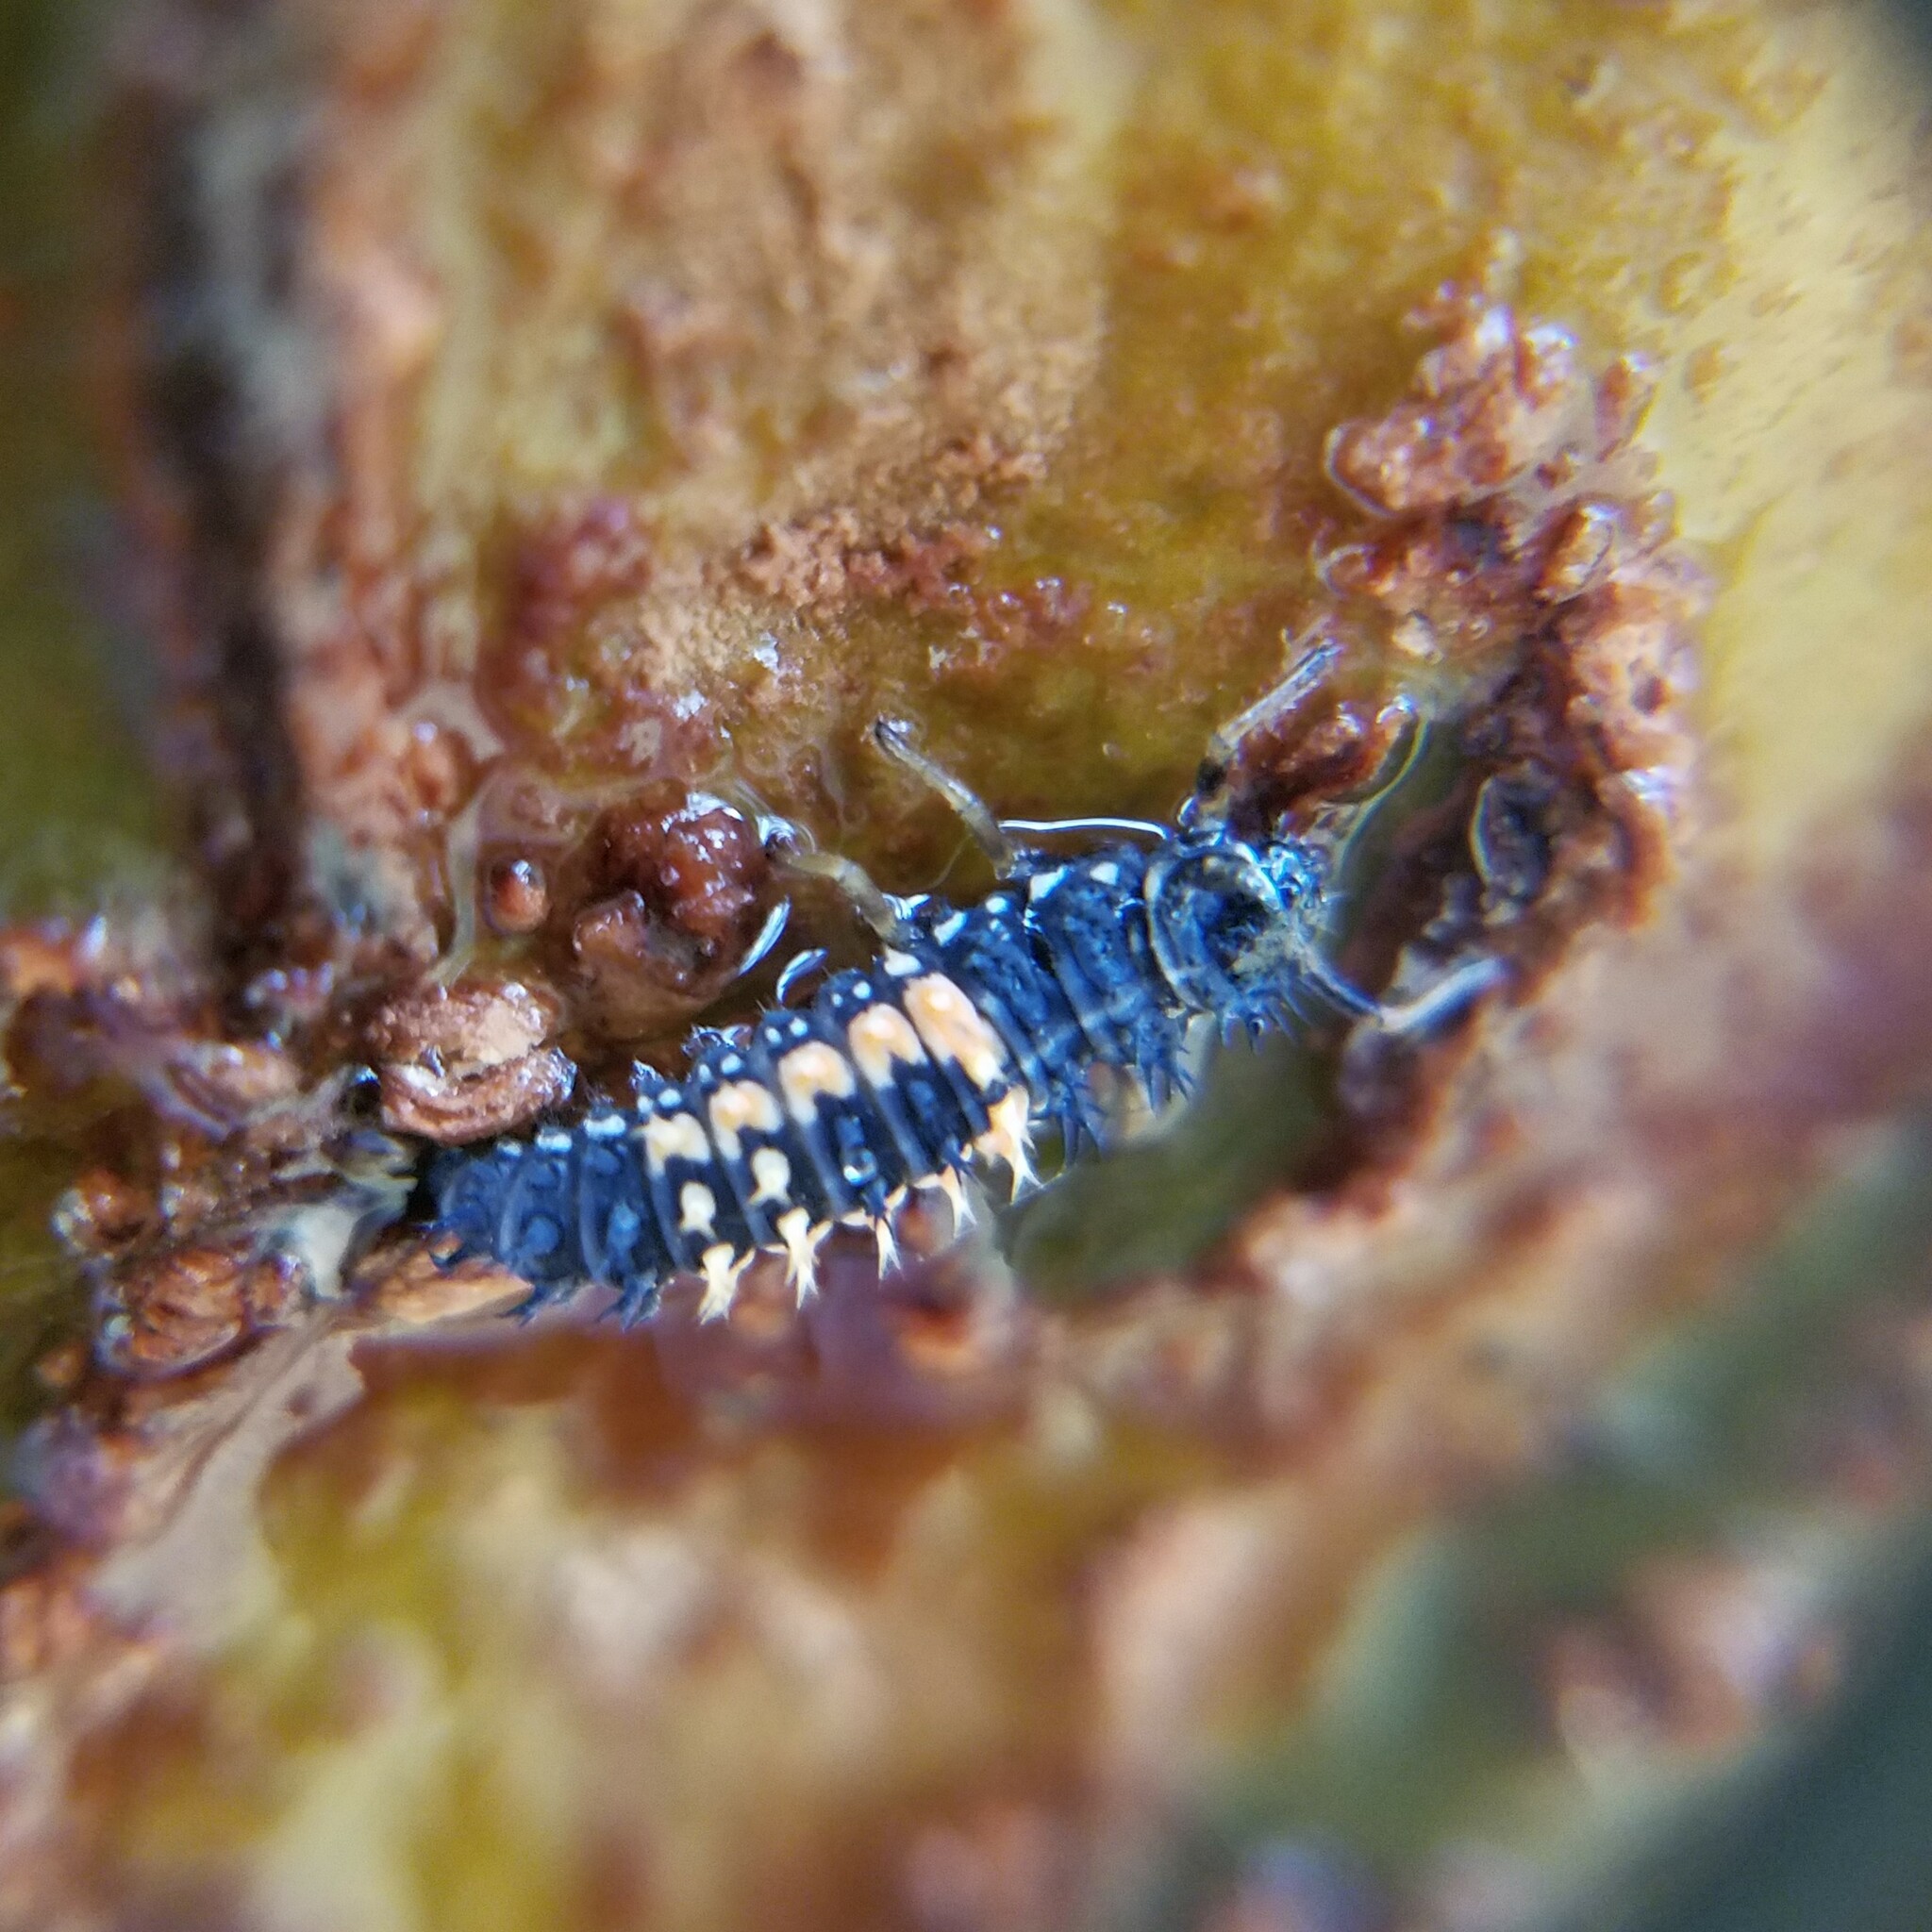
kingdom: Animalia
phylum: Arthropoda
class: Insecta
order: Coleoptera
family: Coccinellidae
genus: Harmonia
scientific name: Harmonia axyridis
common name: Harlequin ladybird
